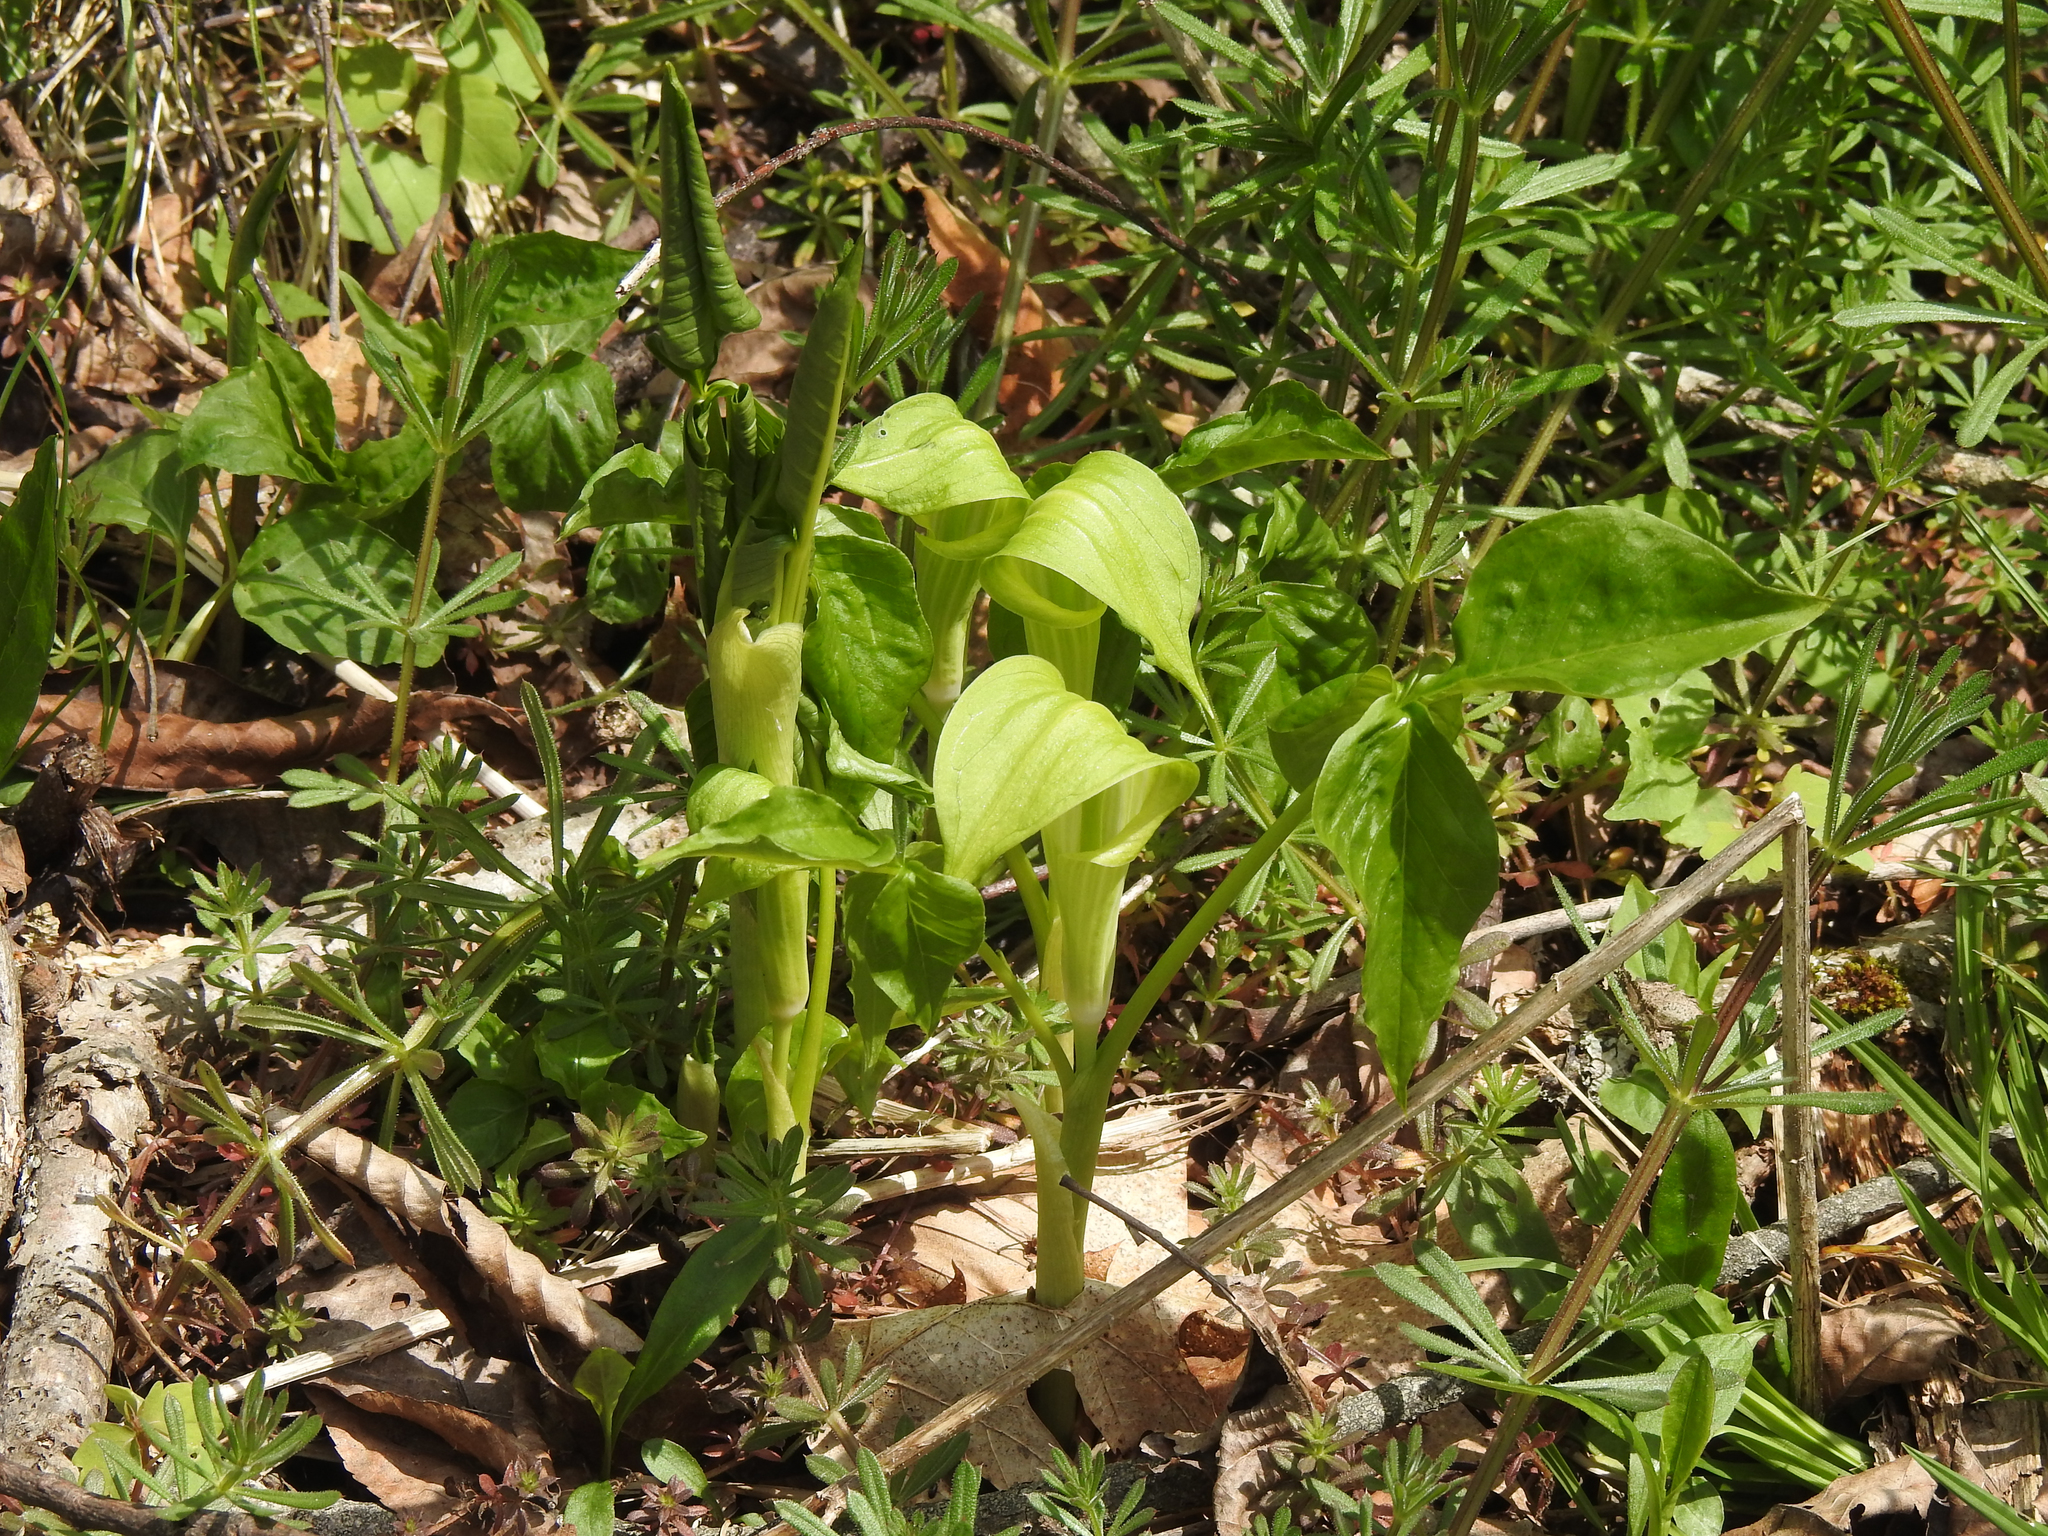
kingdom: Plantae
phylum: Tracheophyta
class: Liliopsida
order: Alismatales
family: Araceae
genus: Arisaema
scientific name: Arisaema triphyllum
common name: Jack-in-the-pulpit
